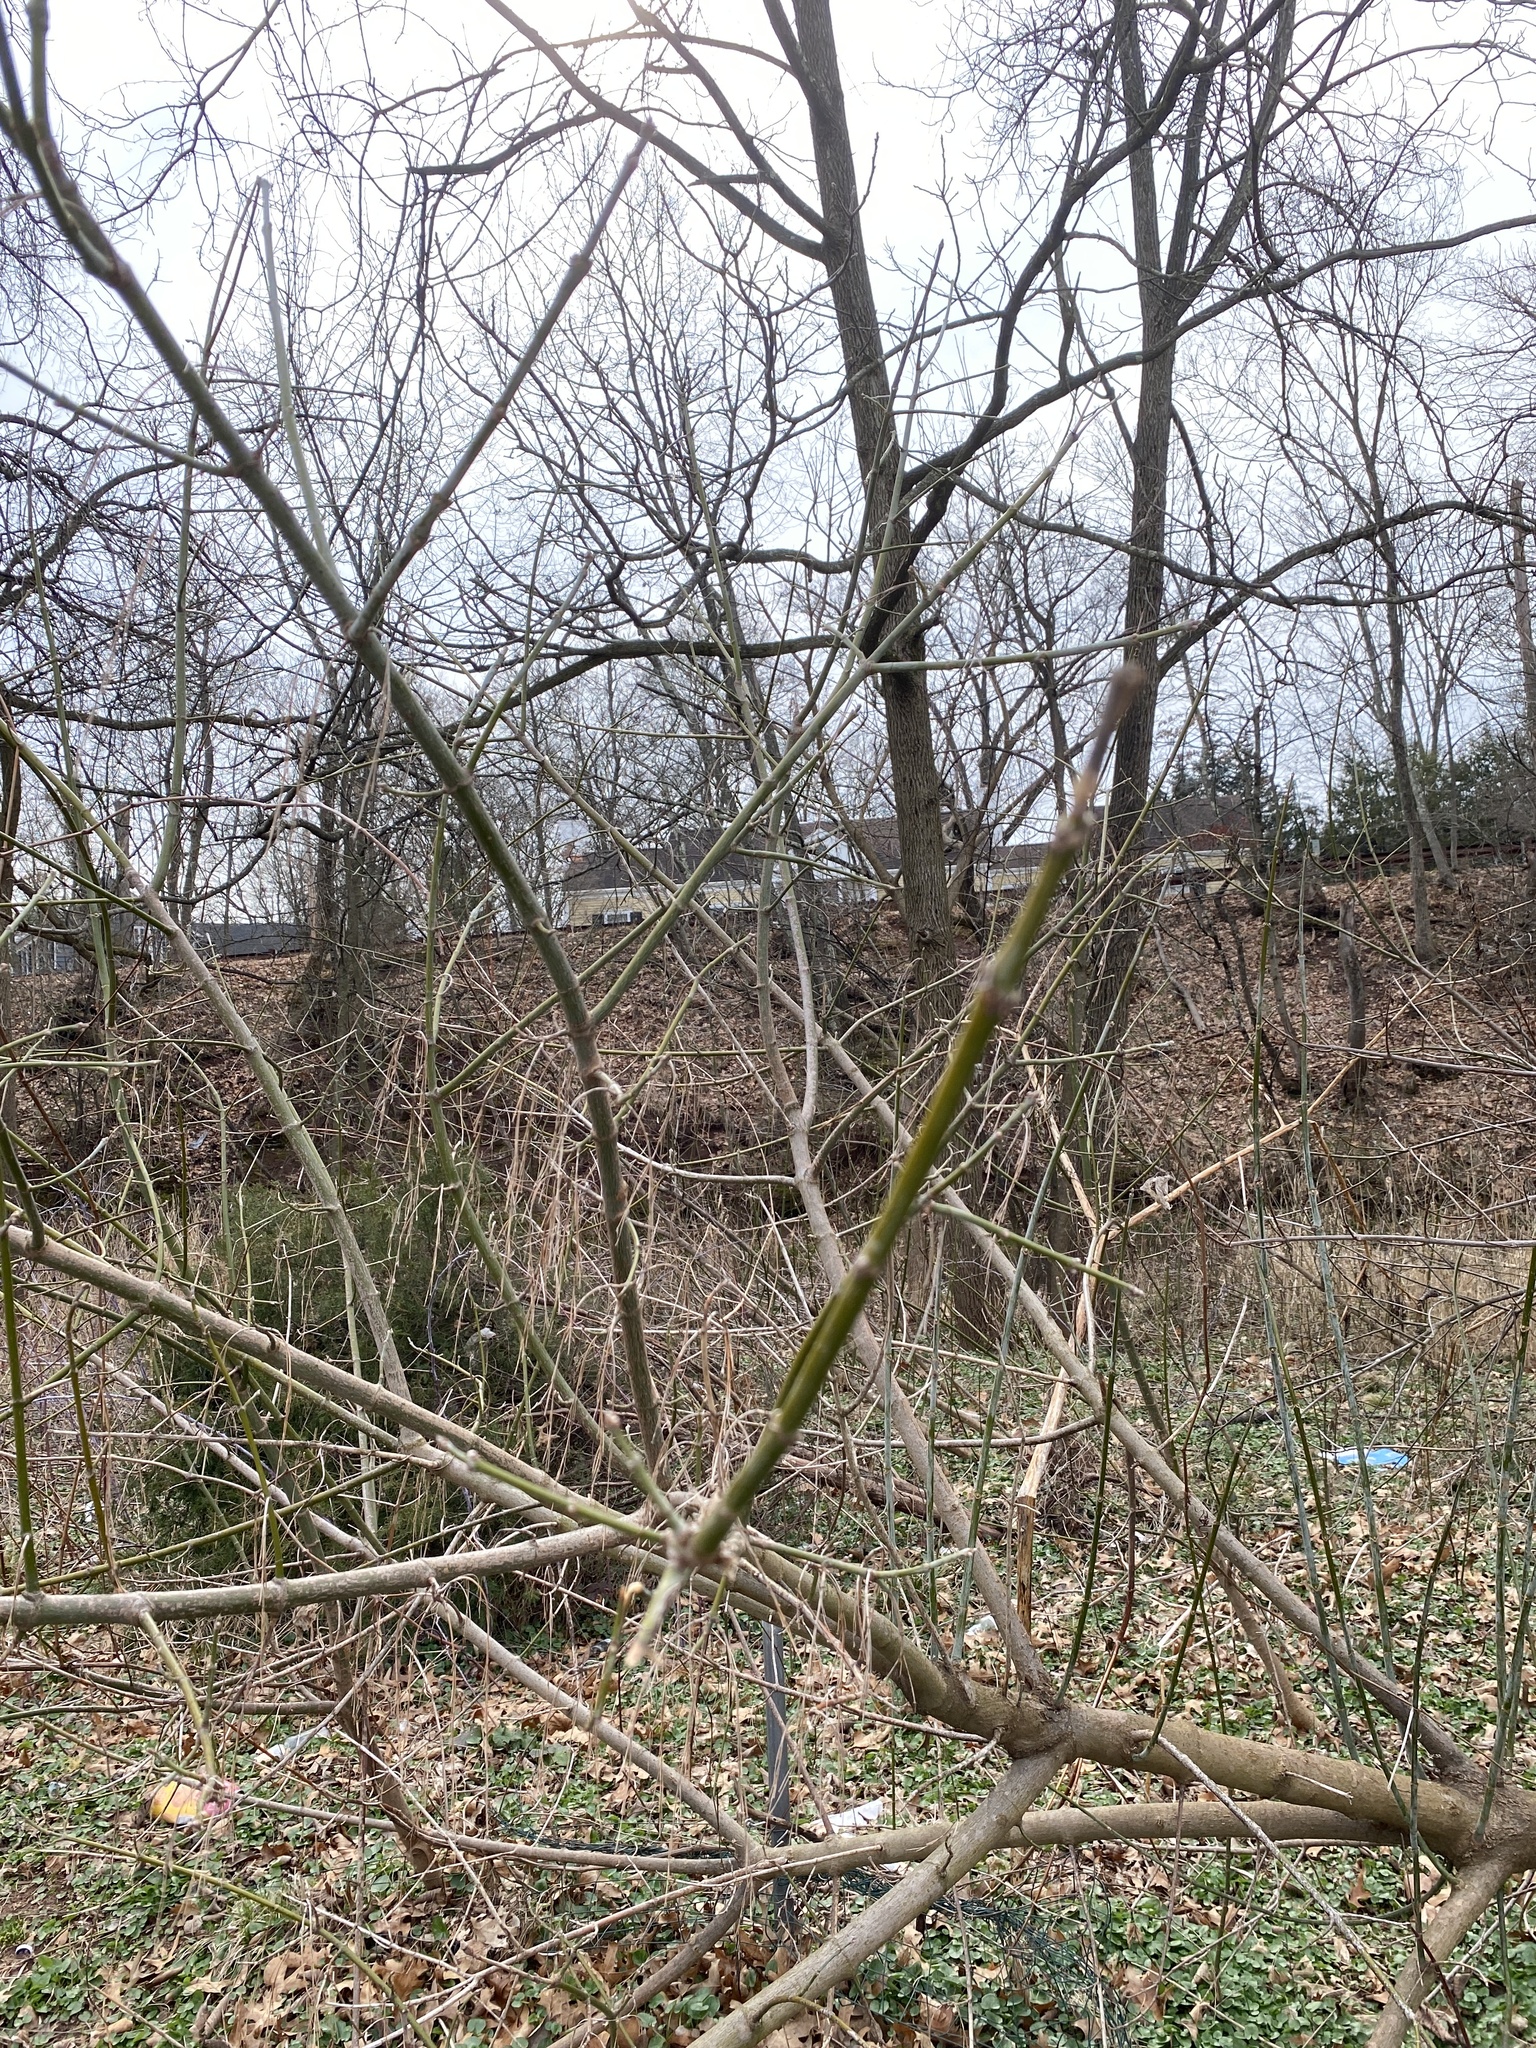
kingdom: Plantae
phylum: Tracheophyta
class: Magnoliopsida
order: Sapindales
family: Sapindaceae
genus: Acer
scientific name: Acer negundo
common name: Ashleaf maple
